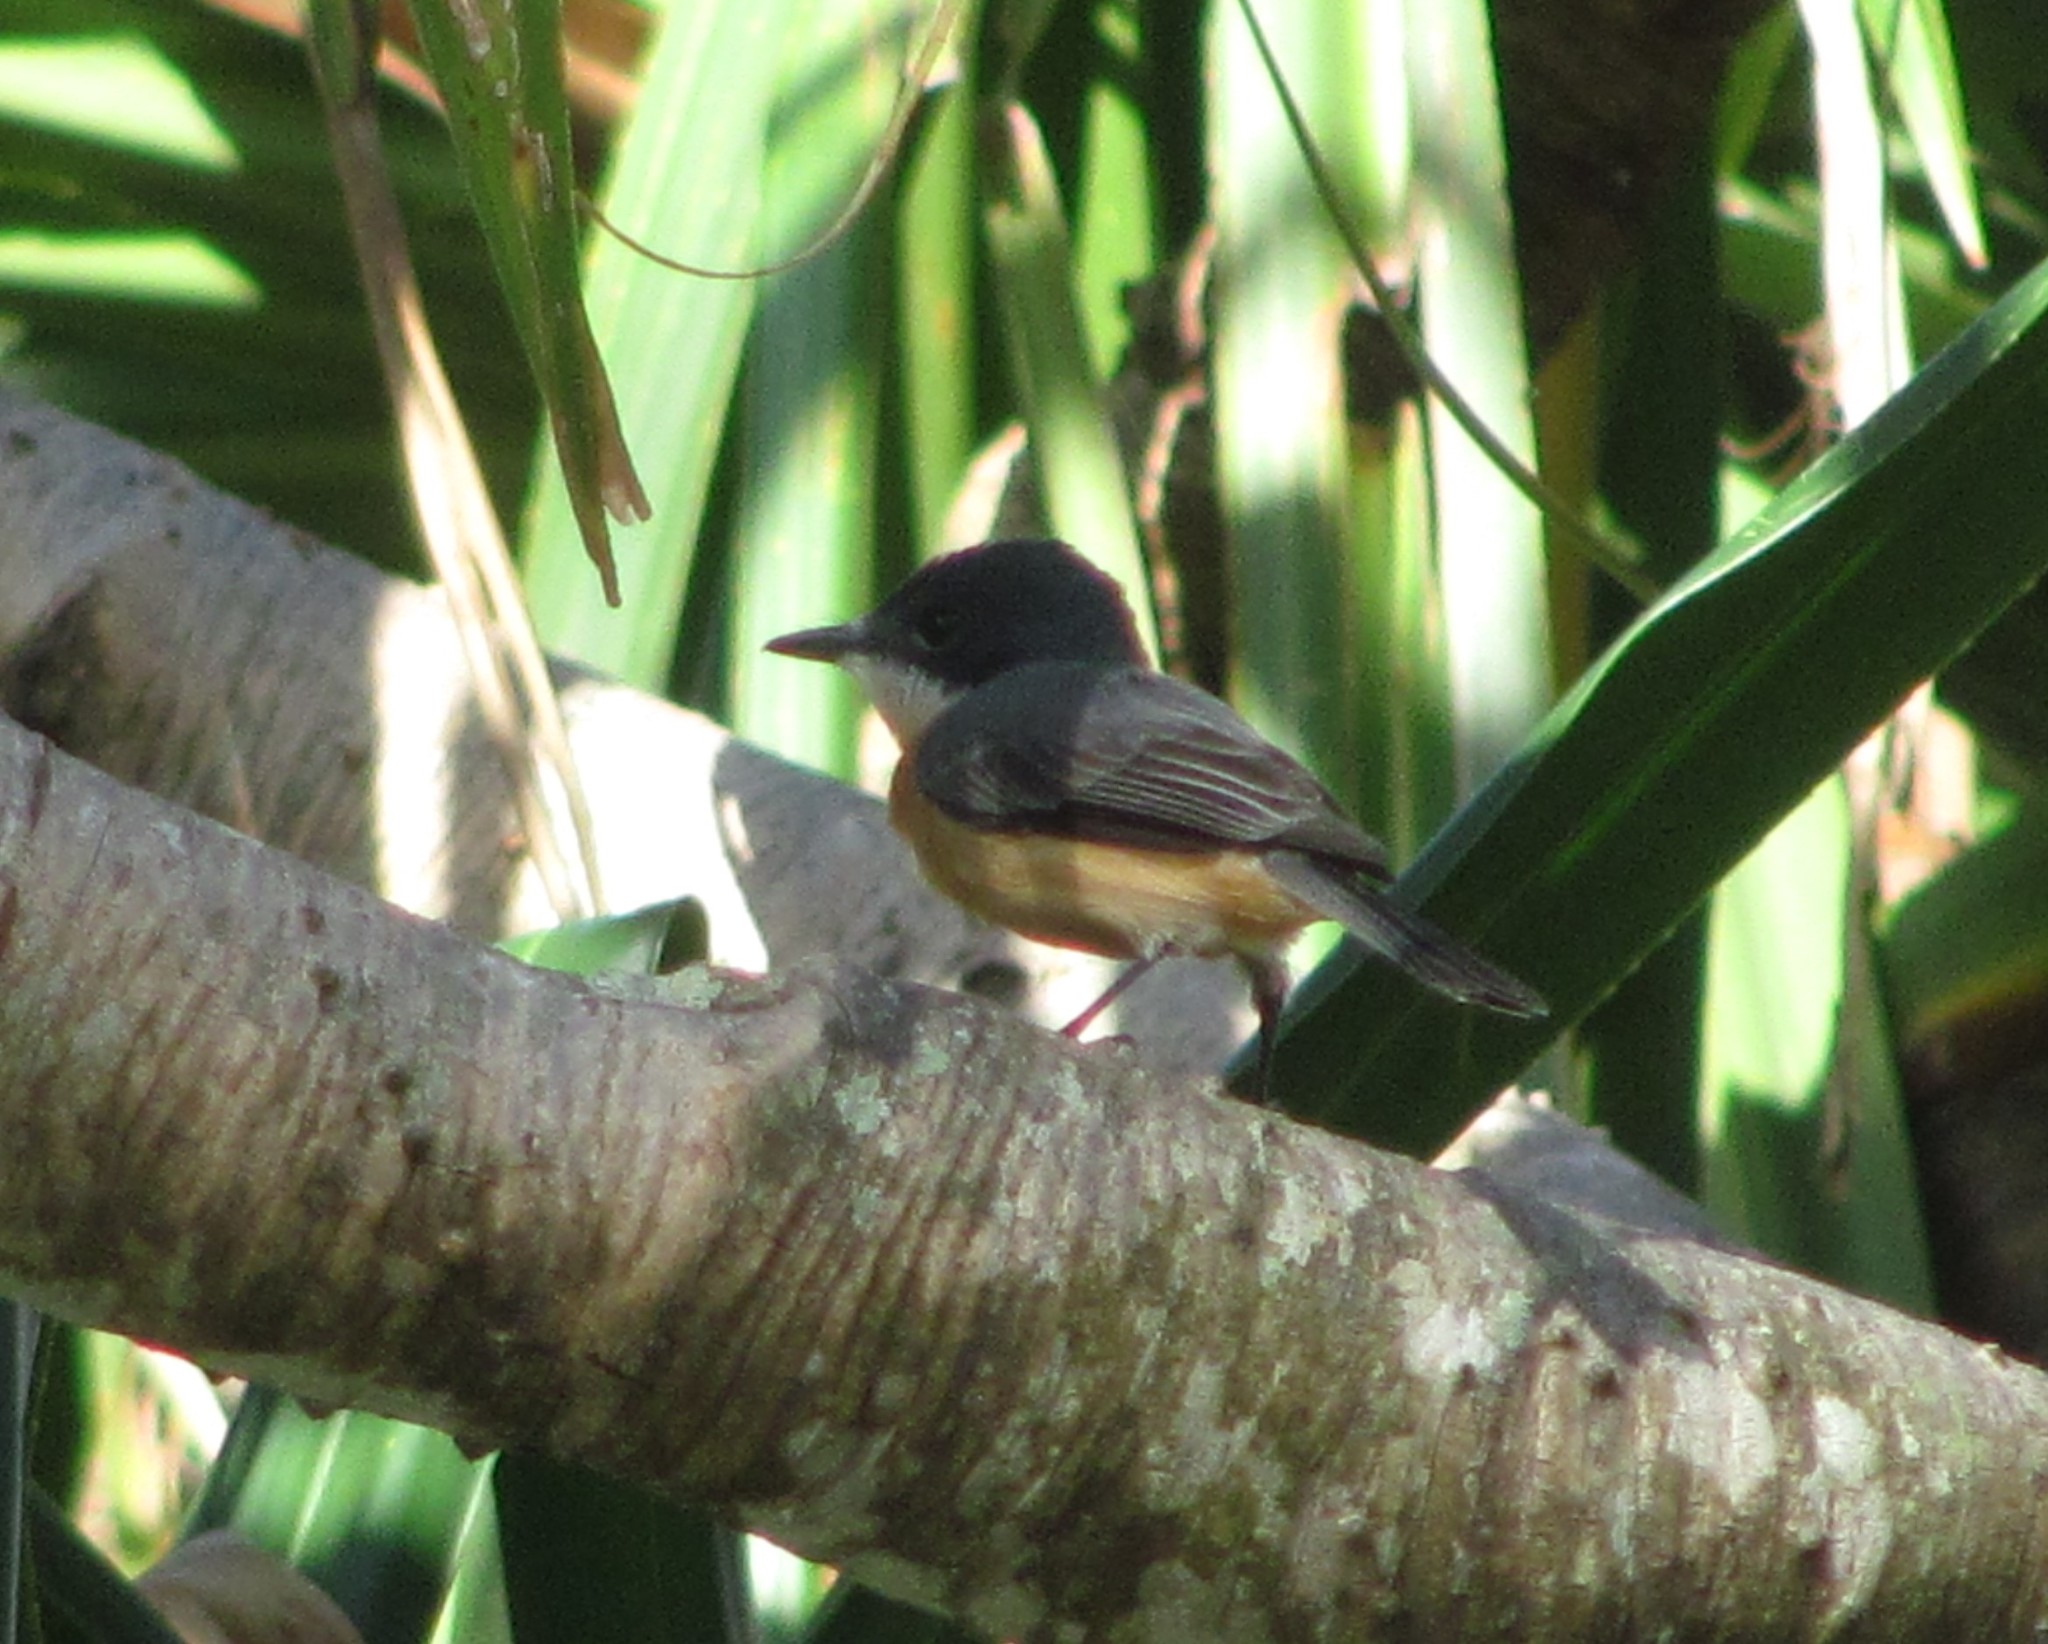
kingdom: Animalia
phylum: Chordata
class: Aves
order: Passeriformes
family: Monarchidae
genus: Myiagra
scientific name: Myiagra vanikorensis
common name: Vanikoro flycatcher
